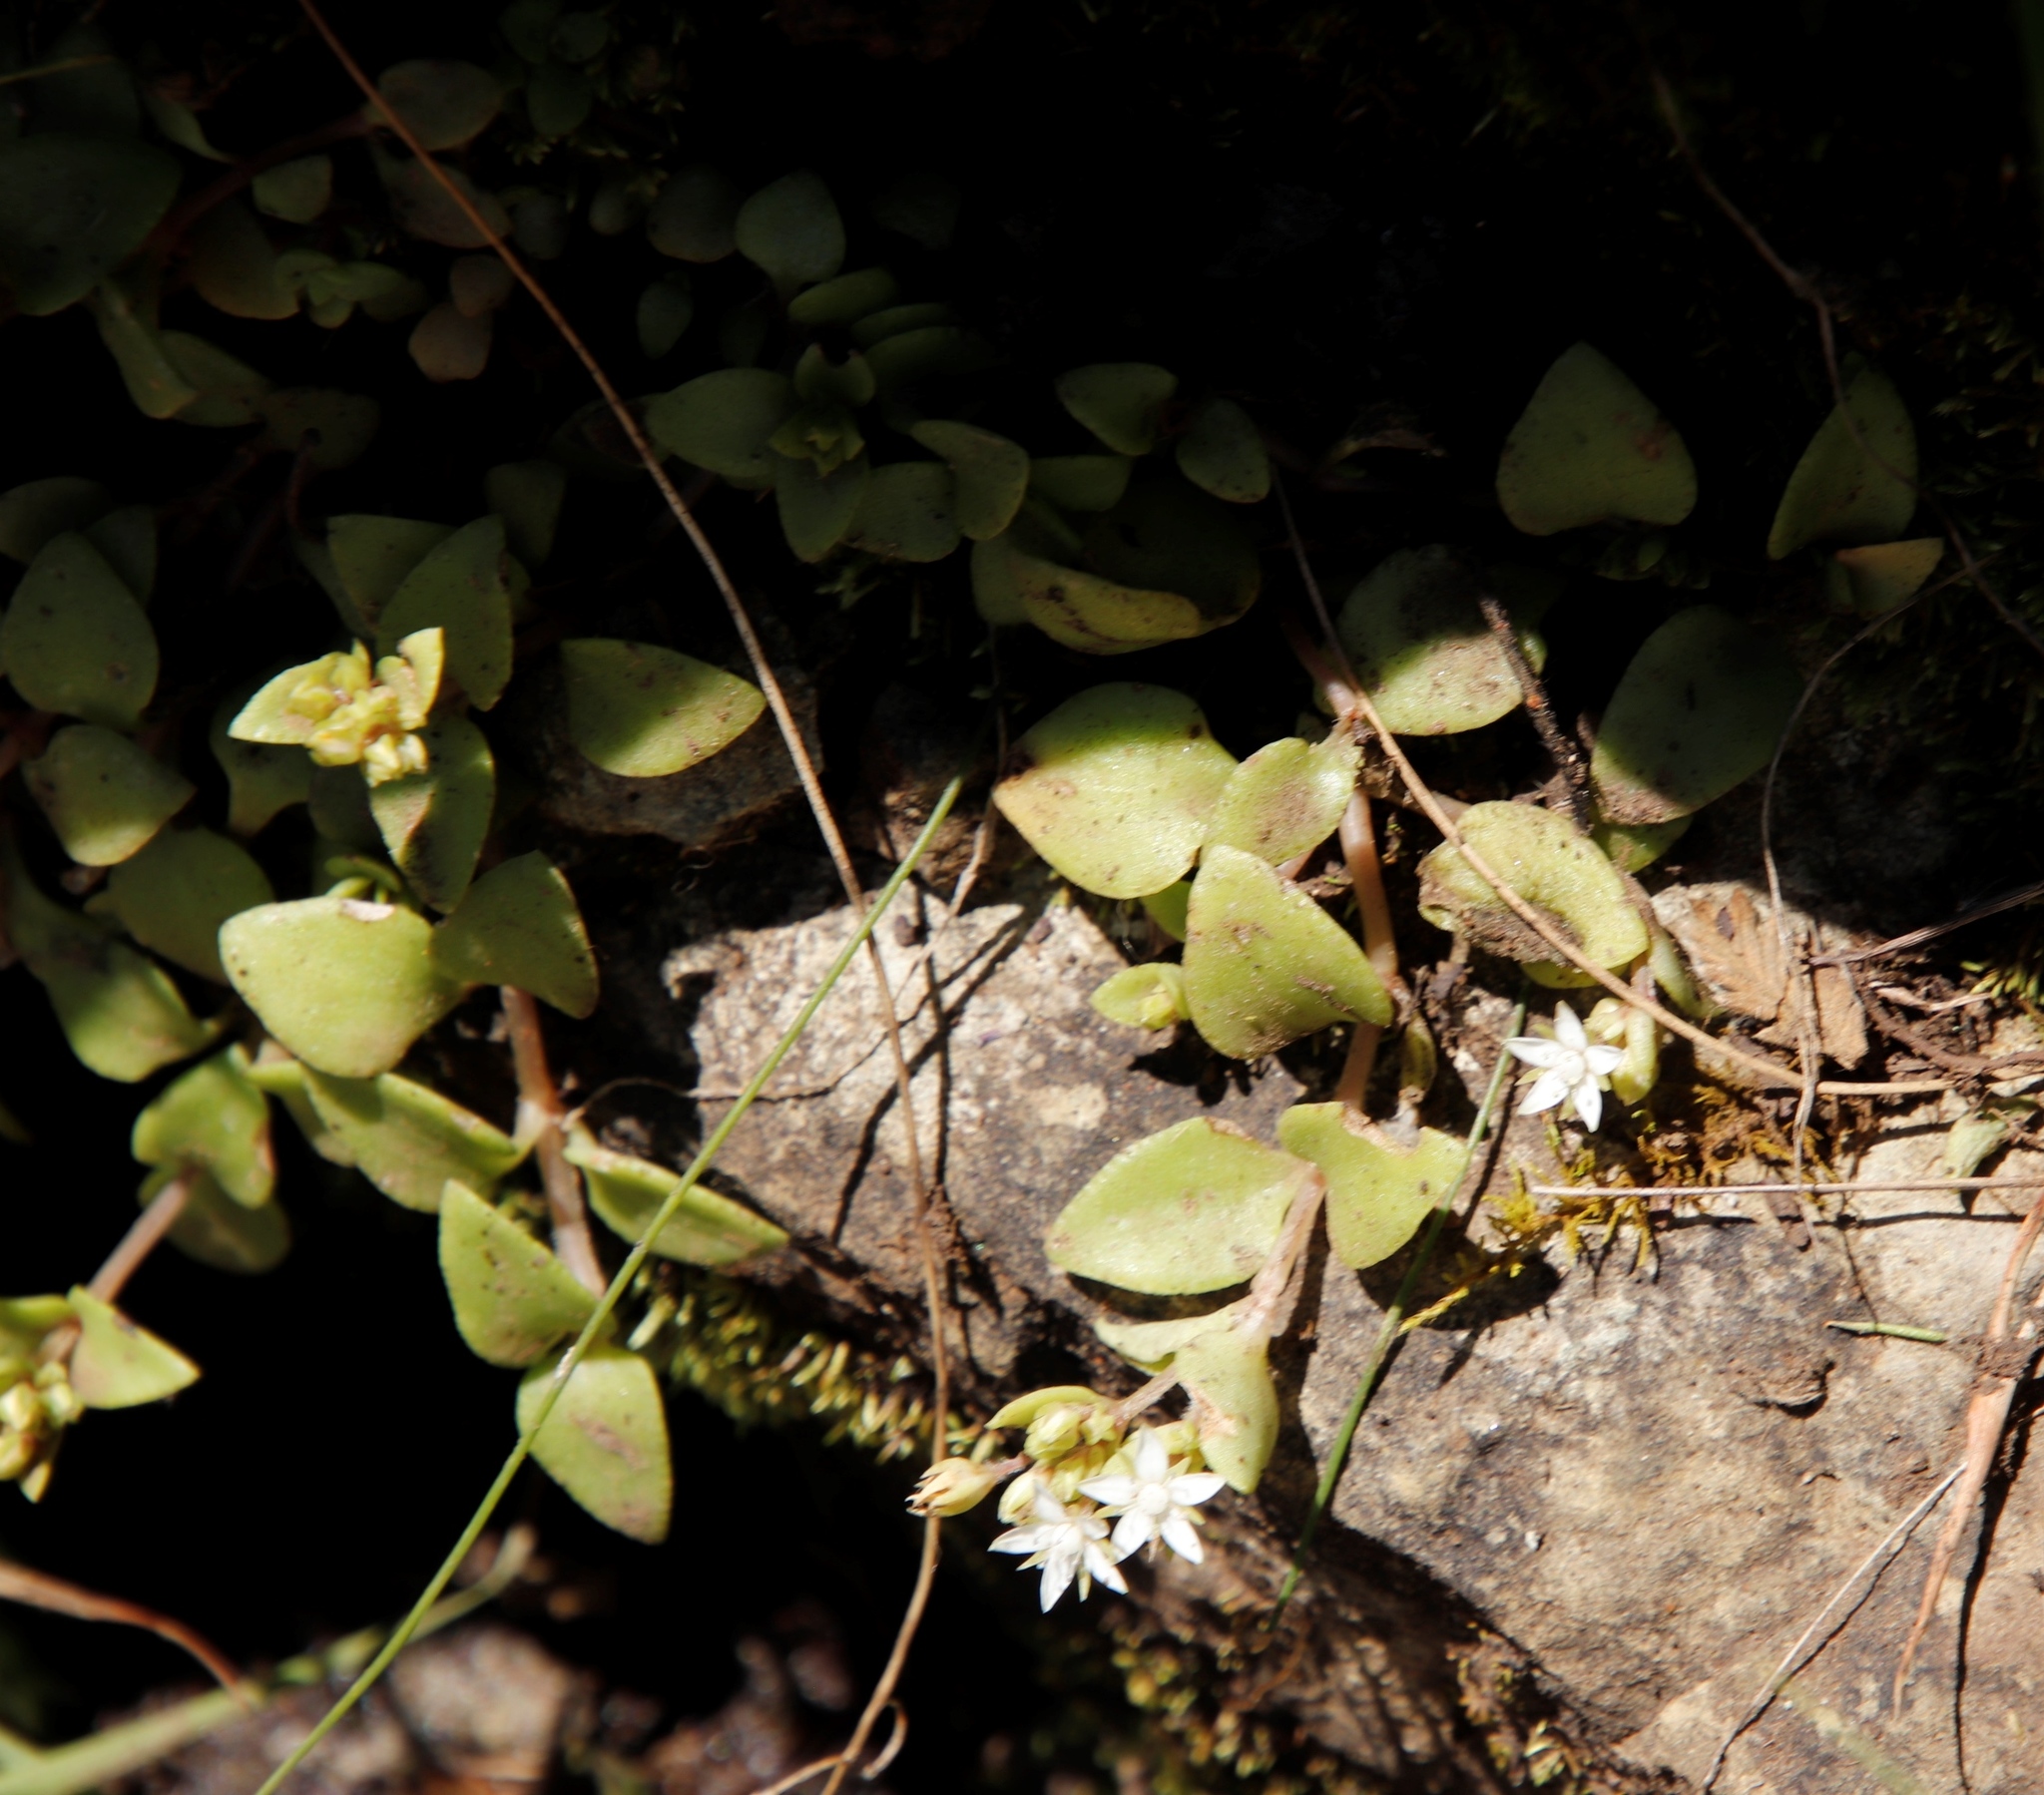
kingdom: Plantae
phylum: Tracheophyta
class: Magnoliopsida
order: Saxifragales
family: Crassulaceae
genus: Crassula
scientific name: Crassula pellucida
